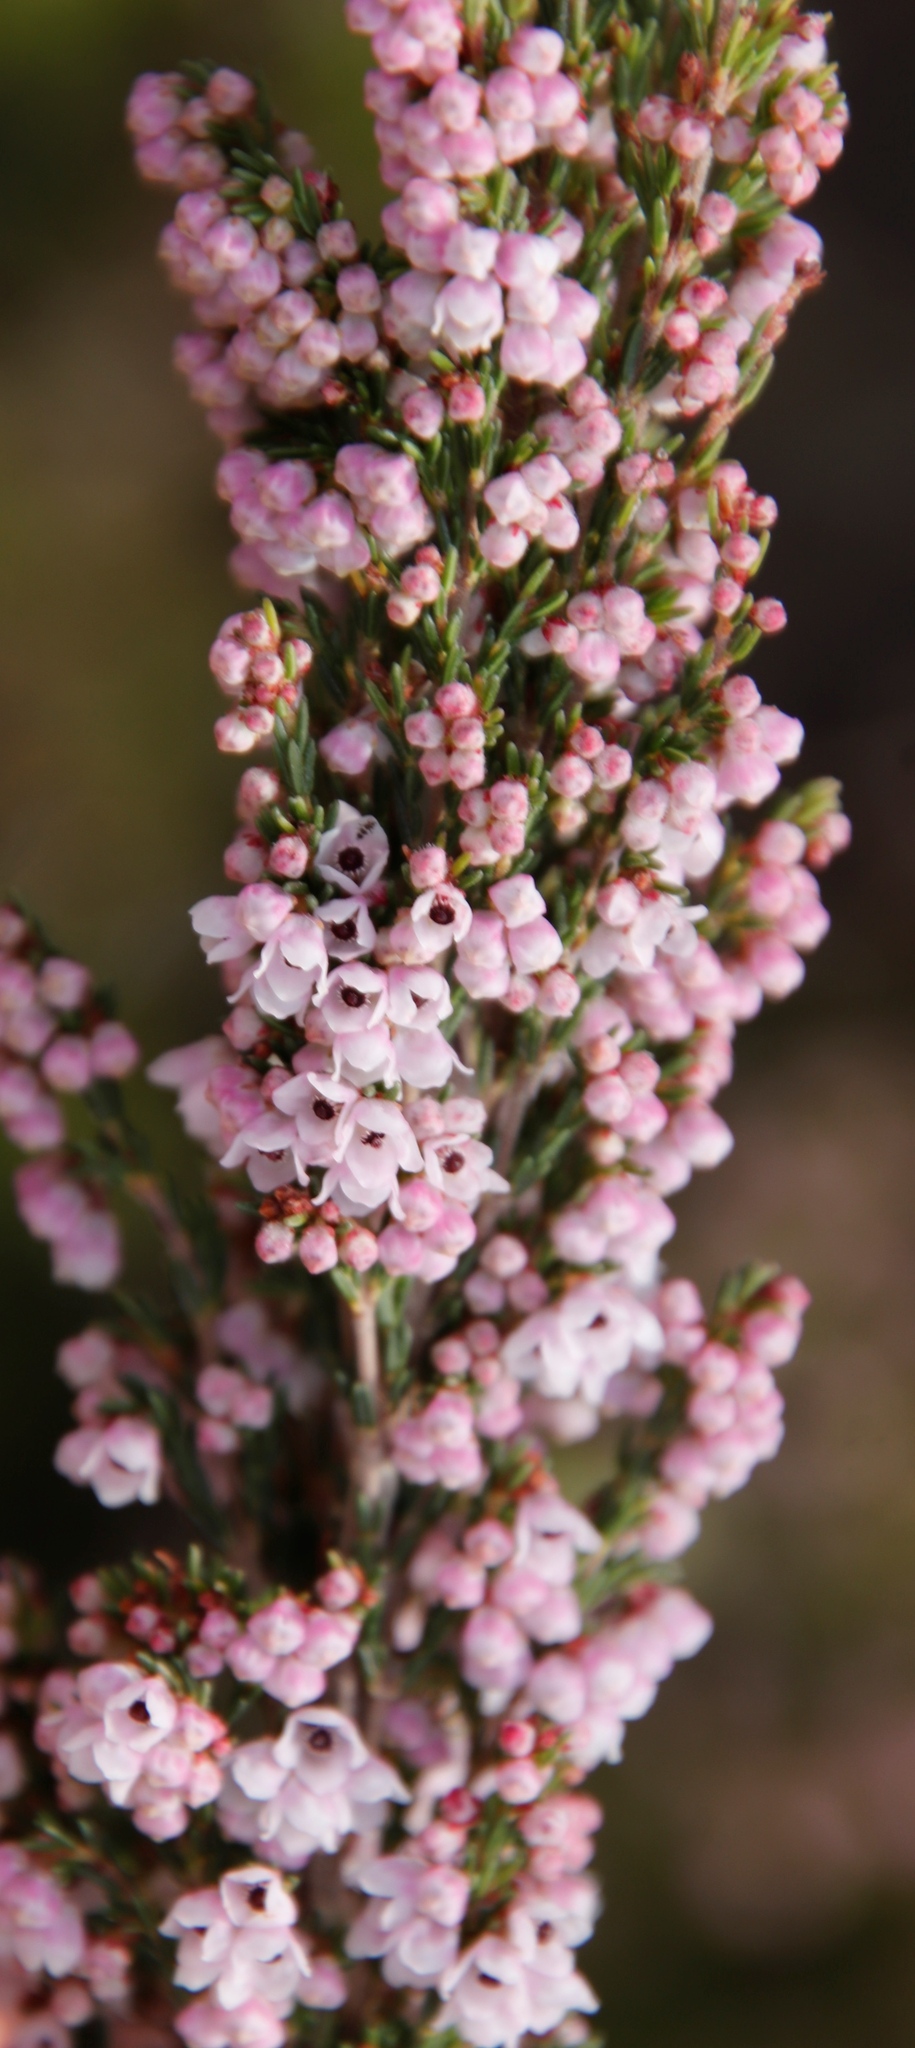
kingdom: Plantae
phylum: Tracheophyta
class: Magnoliopsida
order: Ericales
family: Ericaceae
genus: Erica
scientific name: Erica quadrangularis
